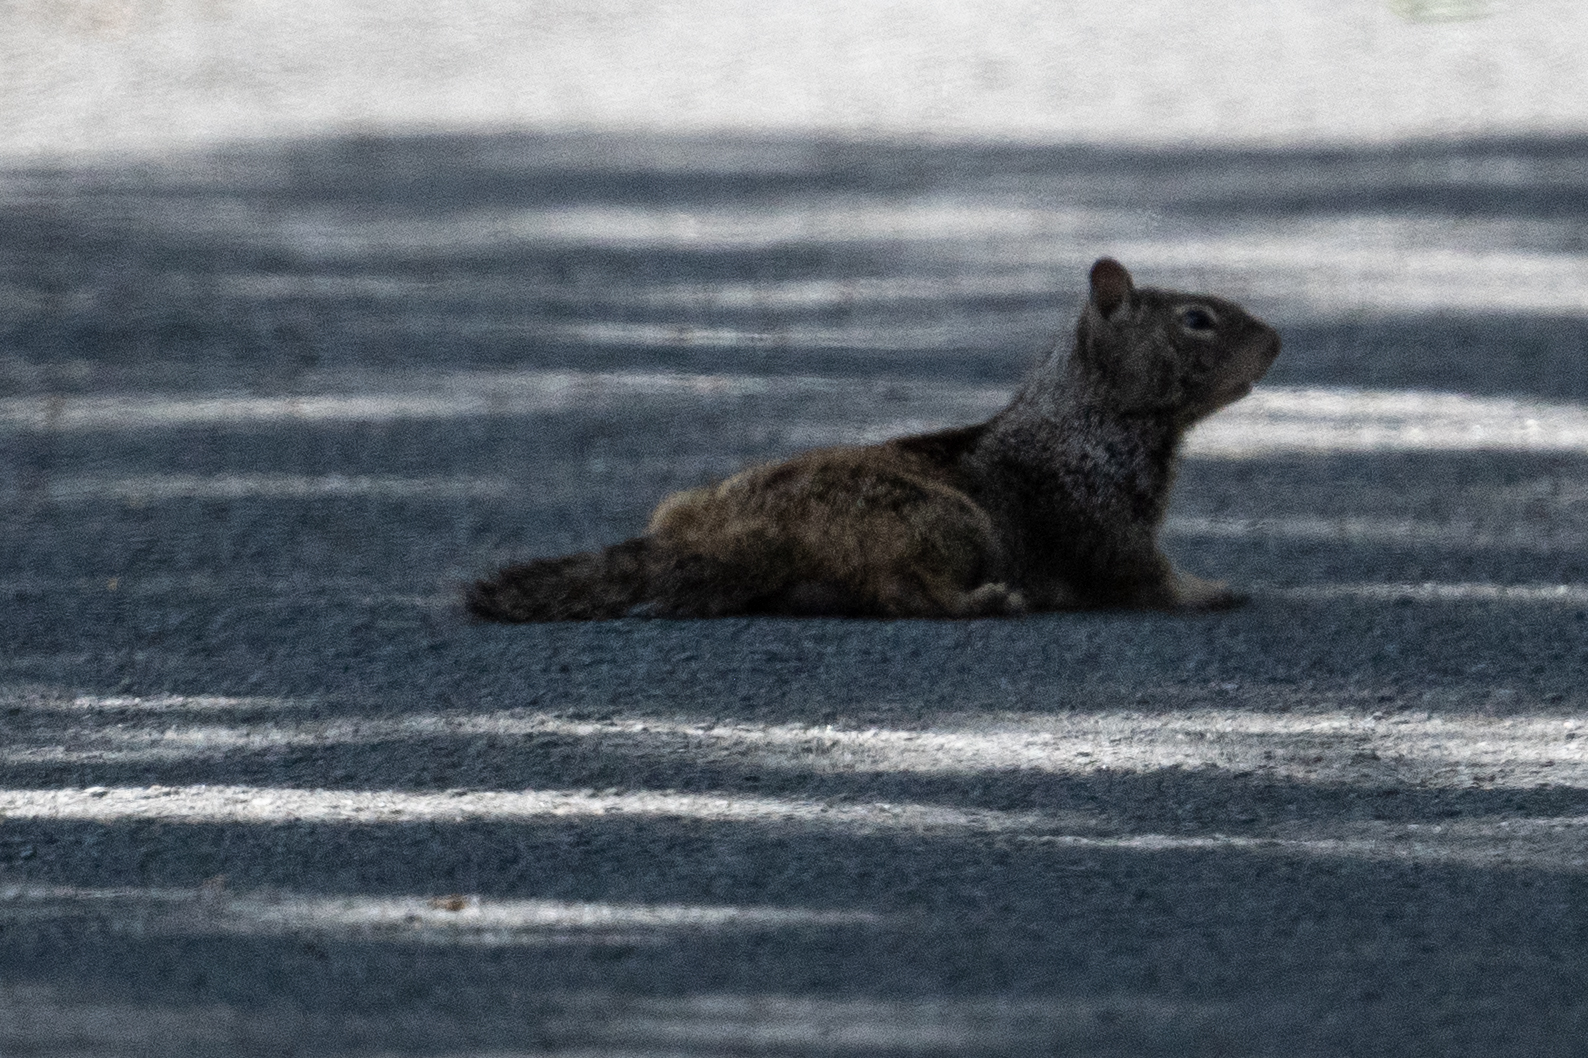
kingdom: Animalia
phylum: Chordata
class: Mammalia
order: Rodentia
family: Sciuridae
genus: Otospermophilus
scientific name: Otospermophilus beecheyi
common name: California ground squirrel
